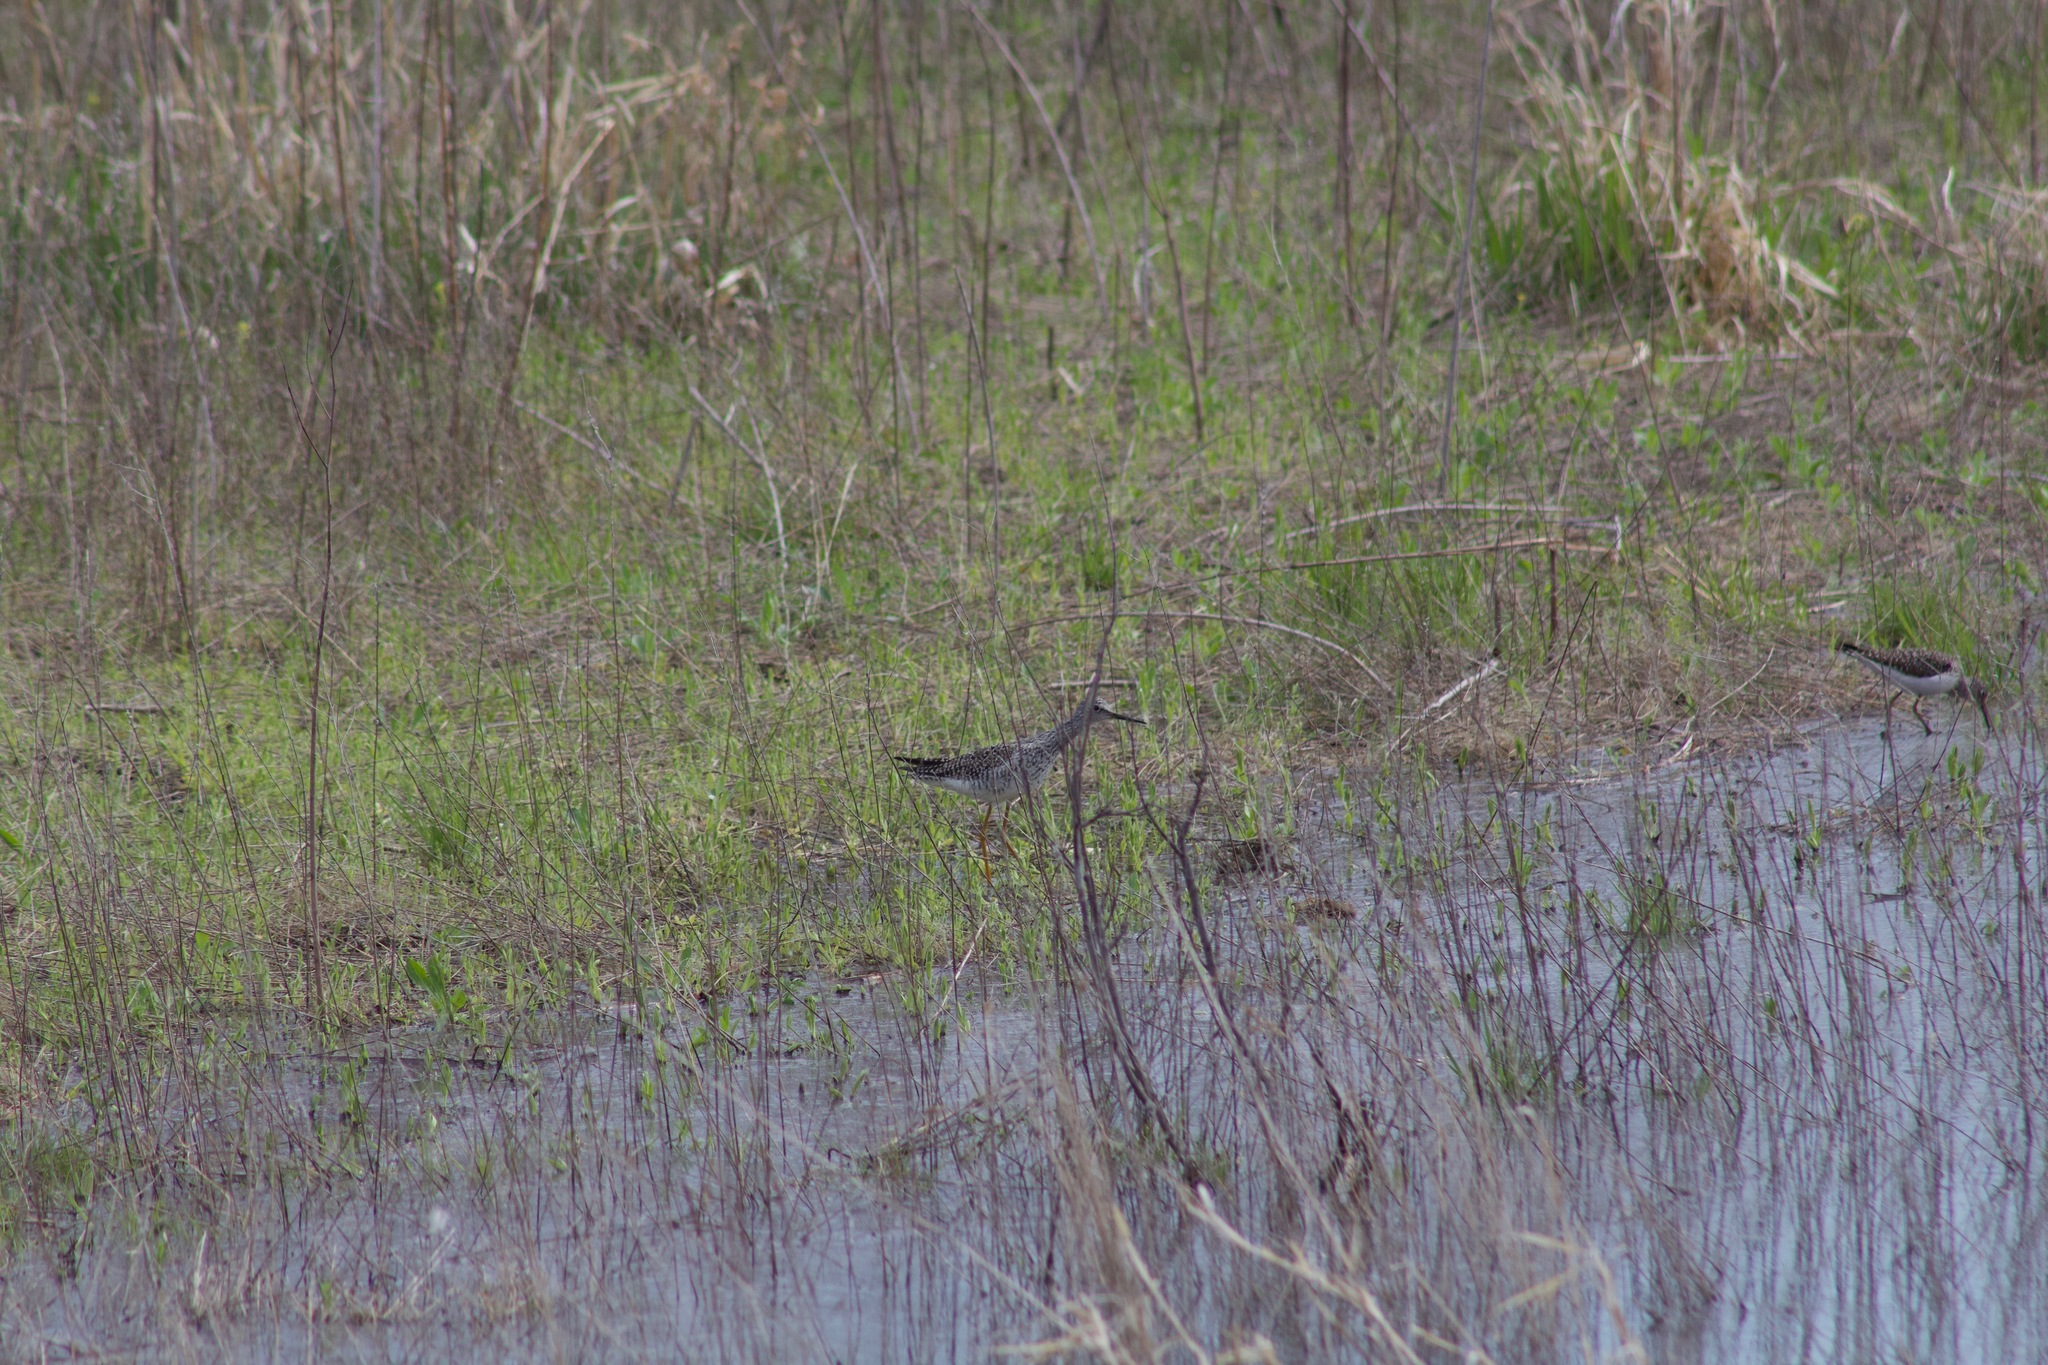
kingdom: Animalia
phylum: Chordata
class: Aves
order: Charadriiformes
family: Scolopacidae
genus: Tringa
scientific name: Tringa flavipes
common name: Lesser yellowlegs
